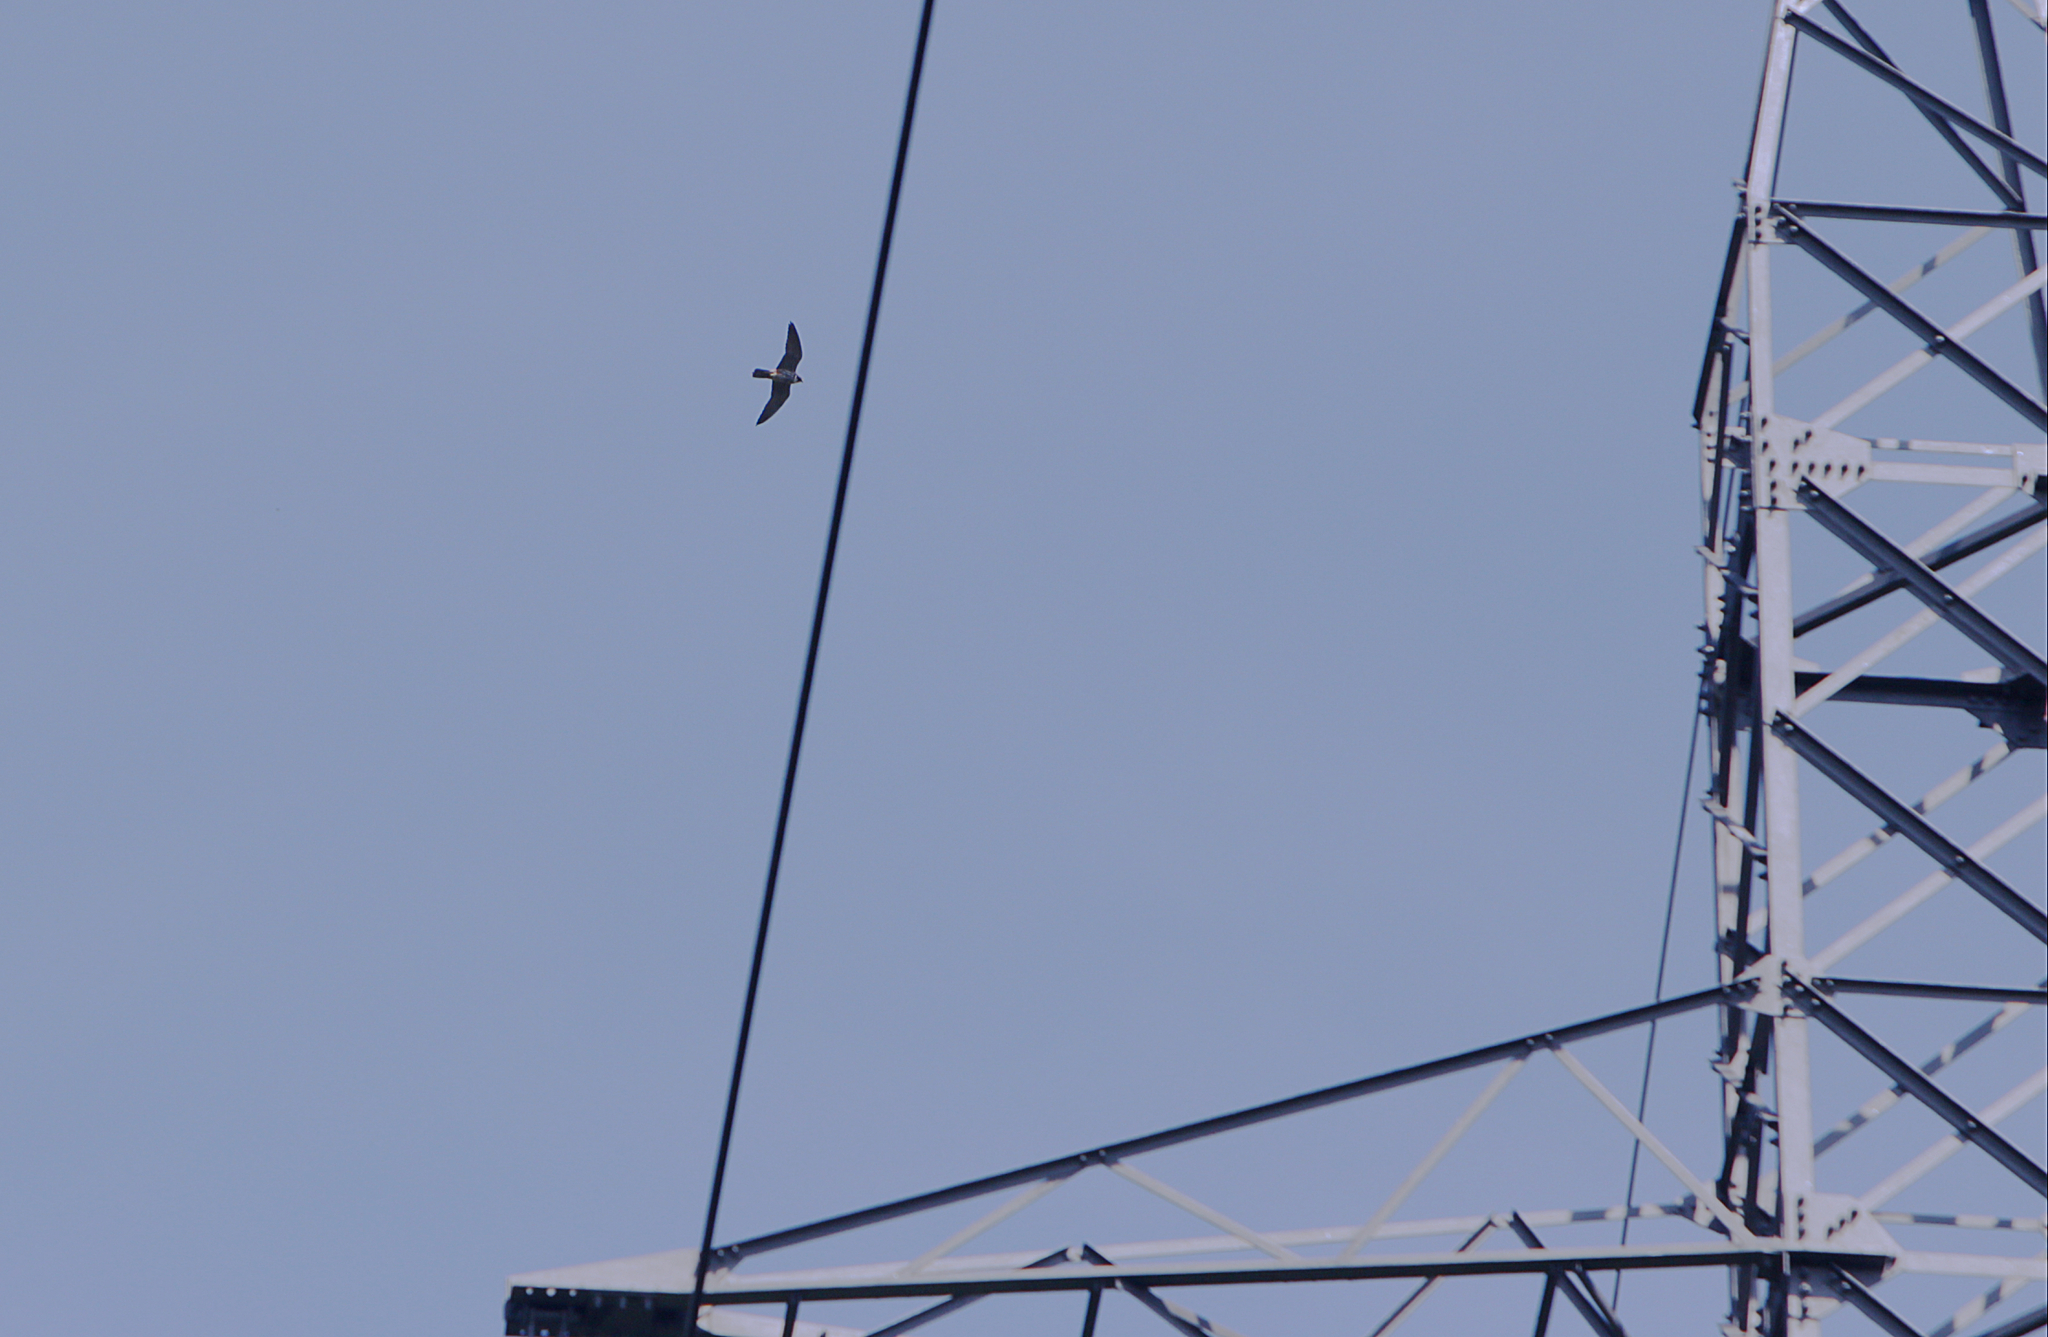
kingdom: Animalia
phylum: Chordata
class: Aves
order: Falconiformes
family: Falconidae
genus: Falco
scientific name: Falco subbuteo
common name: Eurasian hobby
